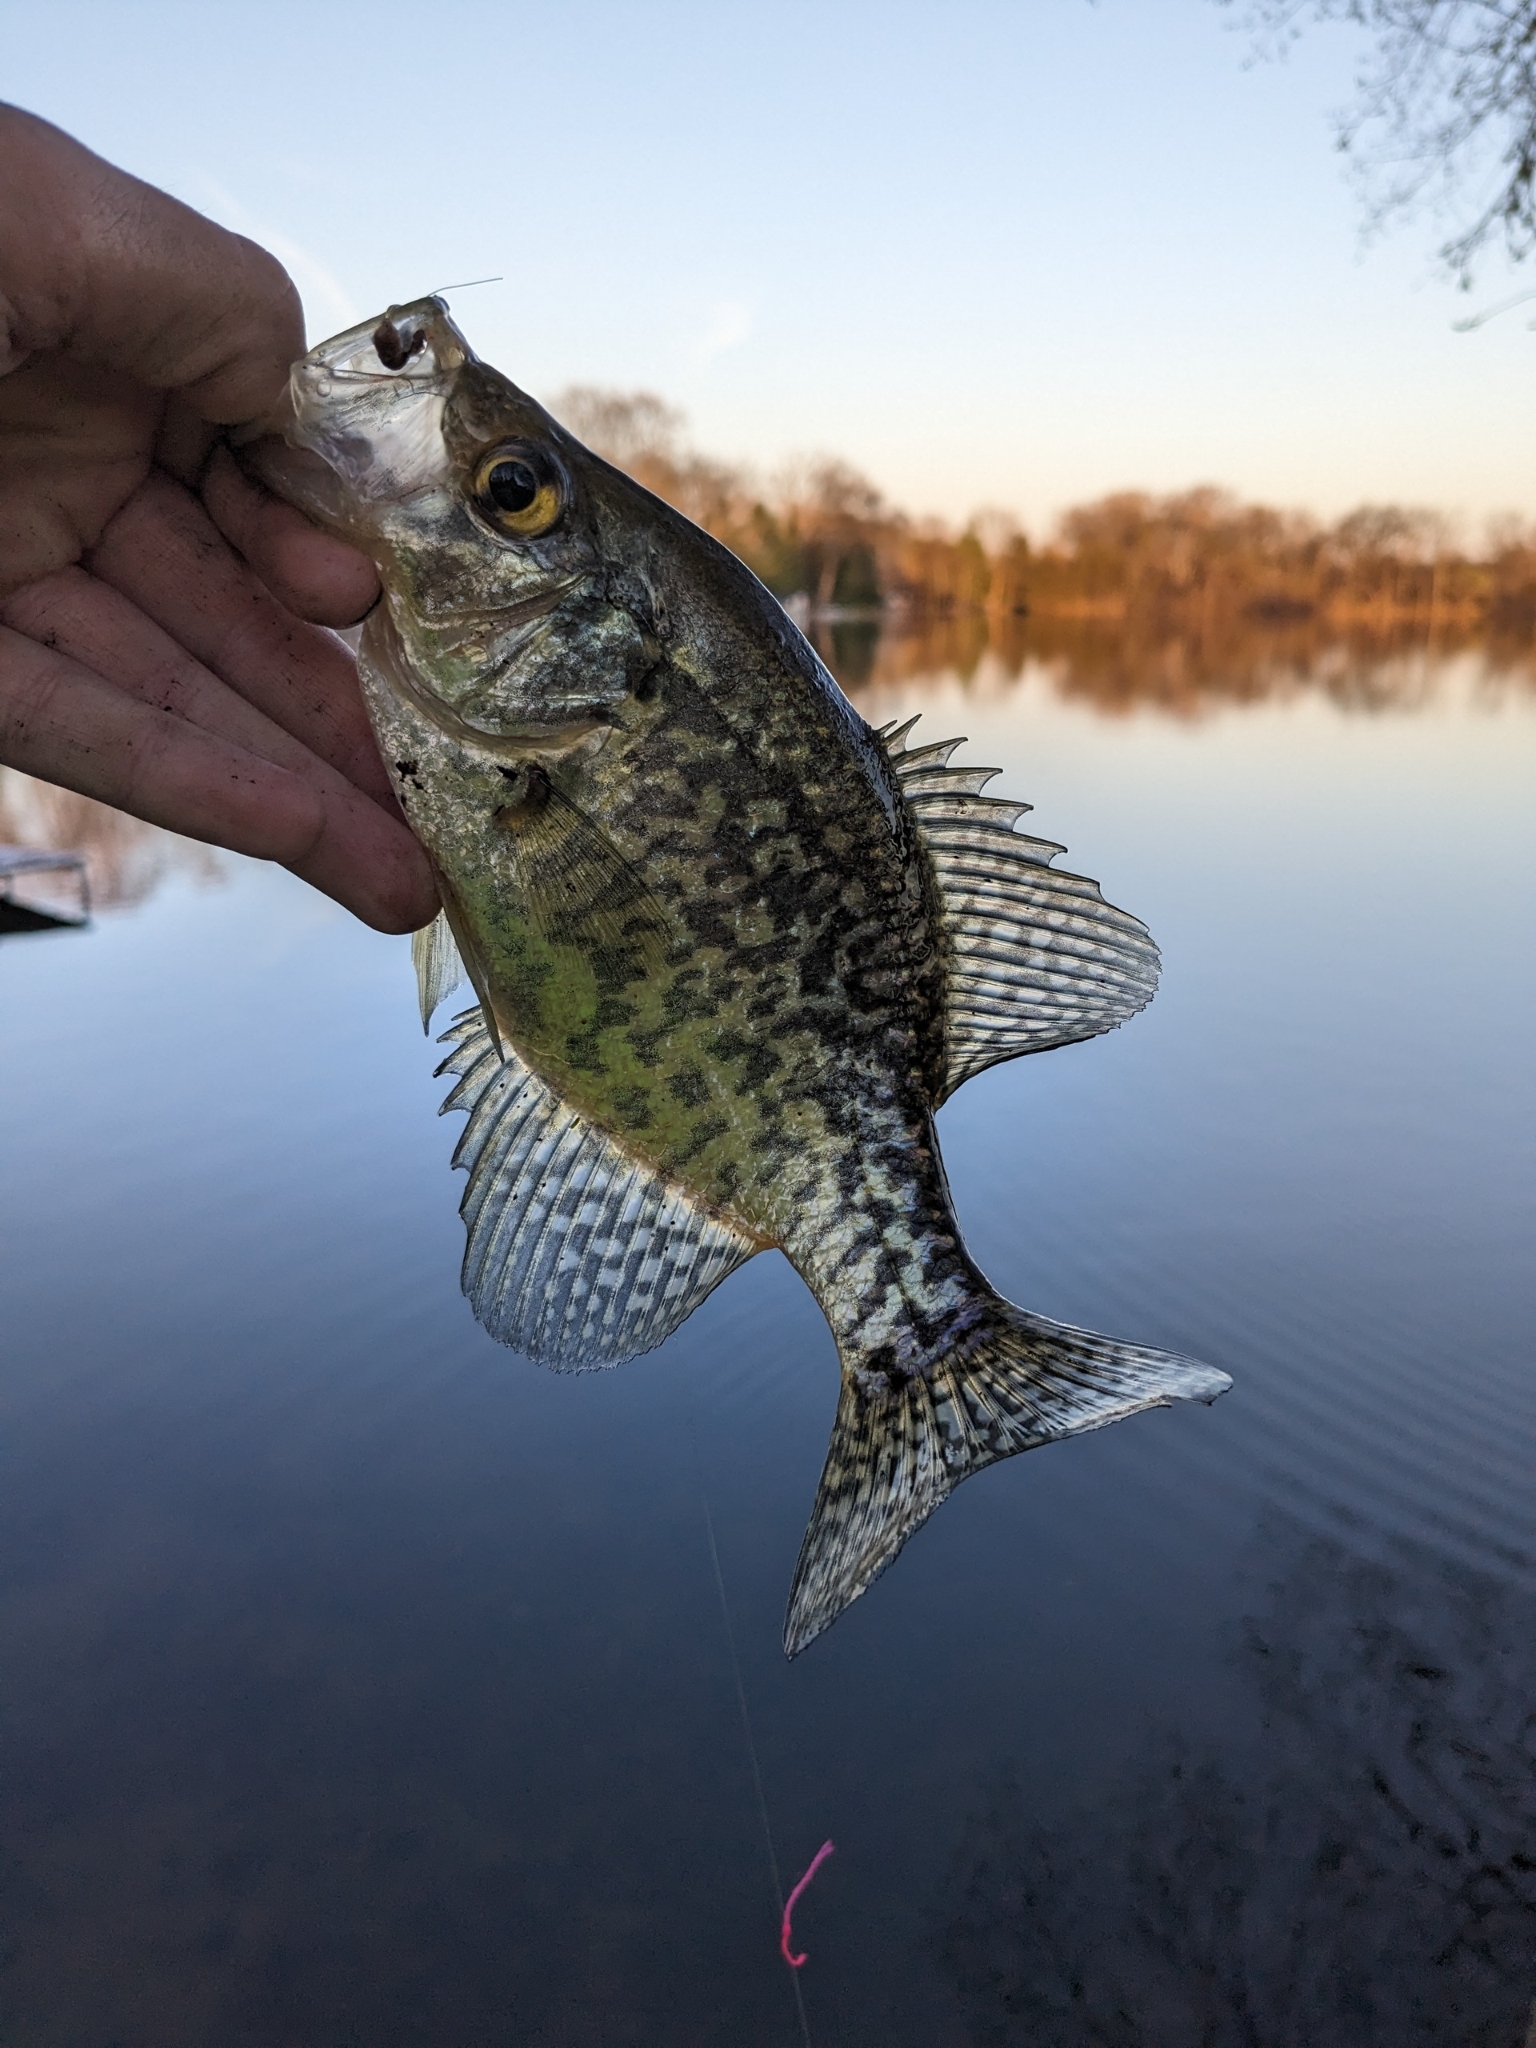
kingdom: Animalia
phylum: Chordata
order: Perciformes
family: Centrarchidae
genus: Pomoxis
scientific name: Pomoxis nigromaculatus
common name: Black crappie
